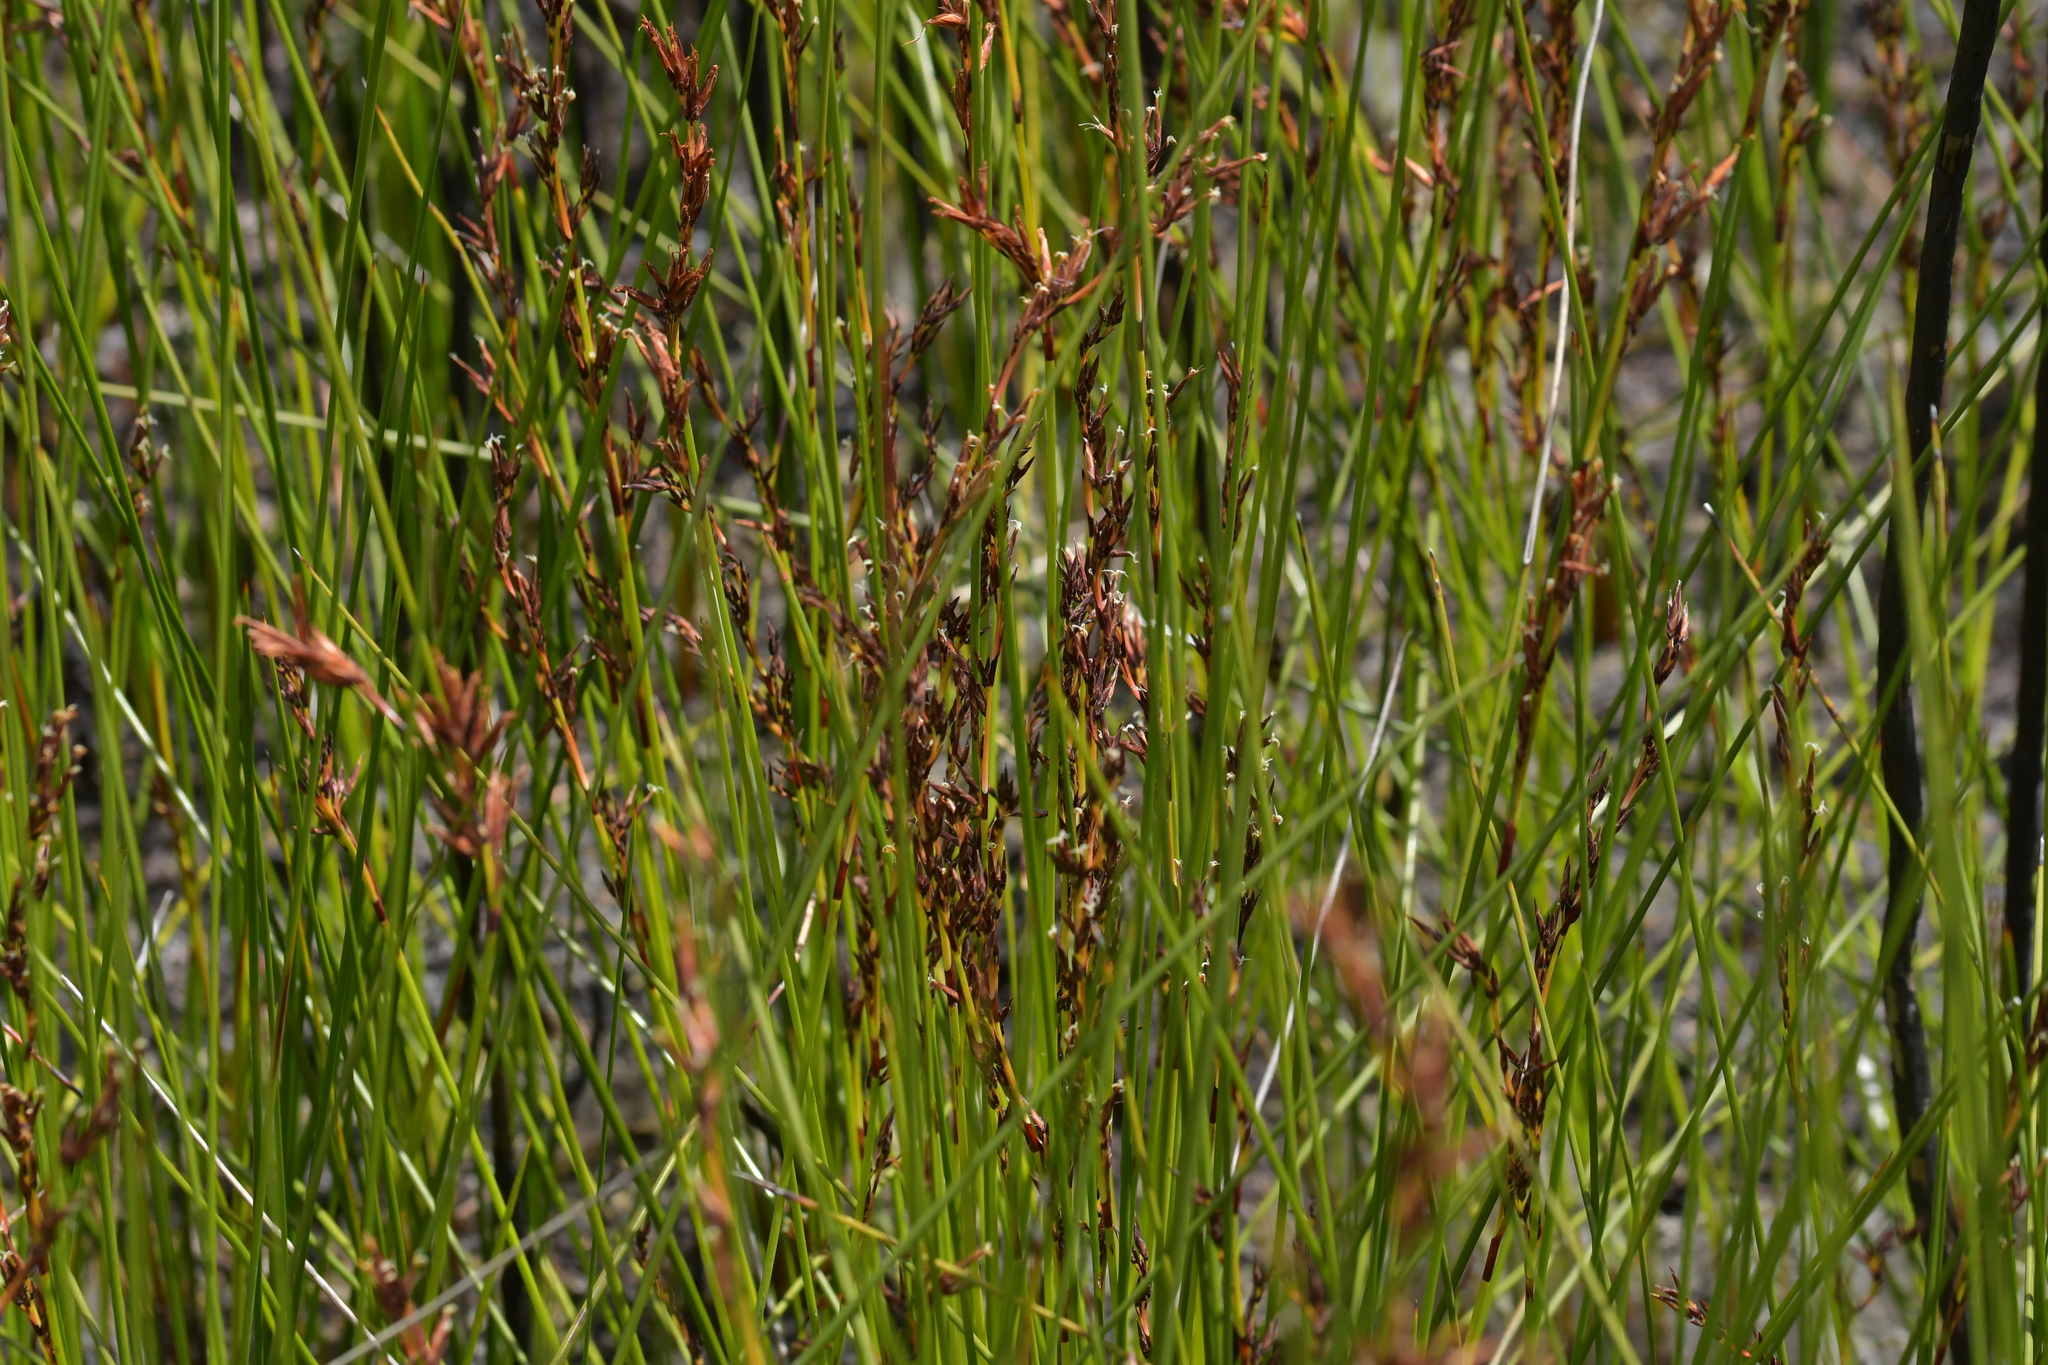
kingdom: Plantae
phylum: Tracheophyta
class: Liliopsida
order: Poales
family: Cyperaceae
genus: Schoenus
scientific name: Schoenus brevifolius
